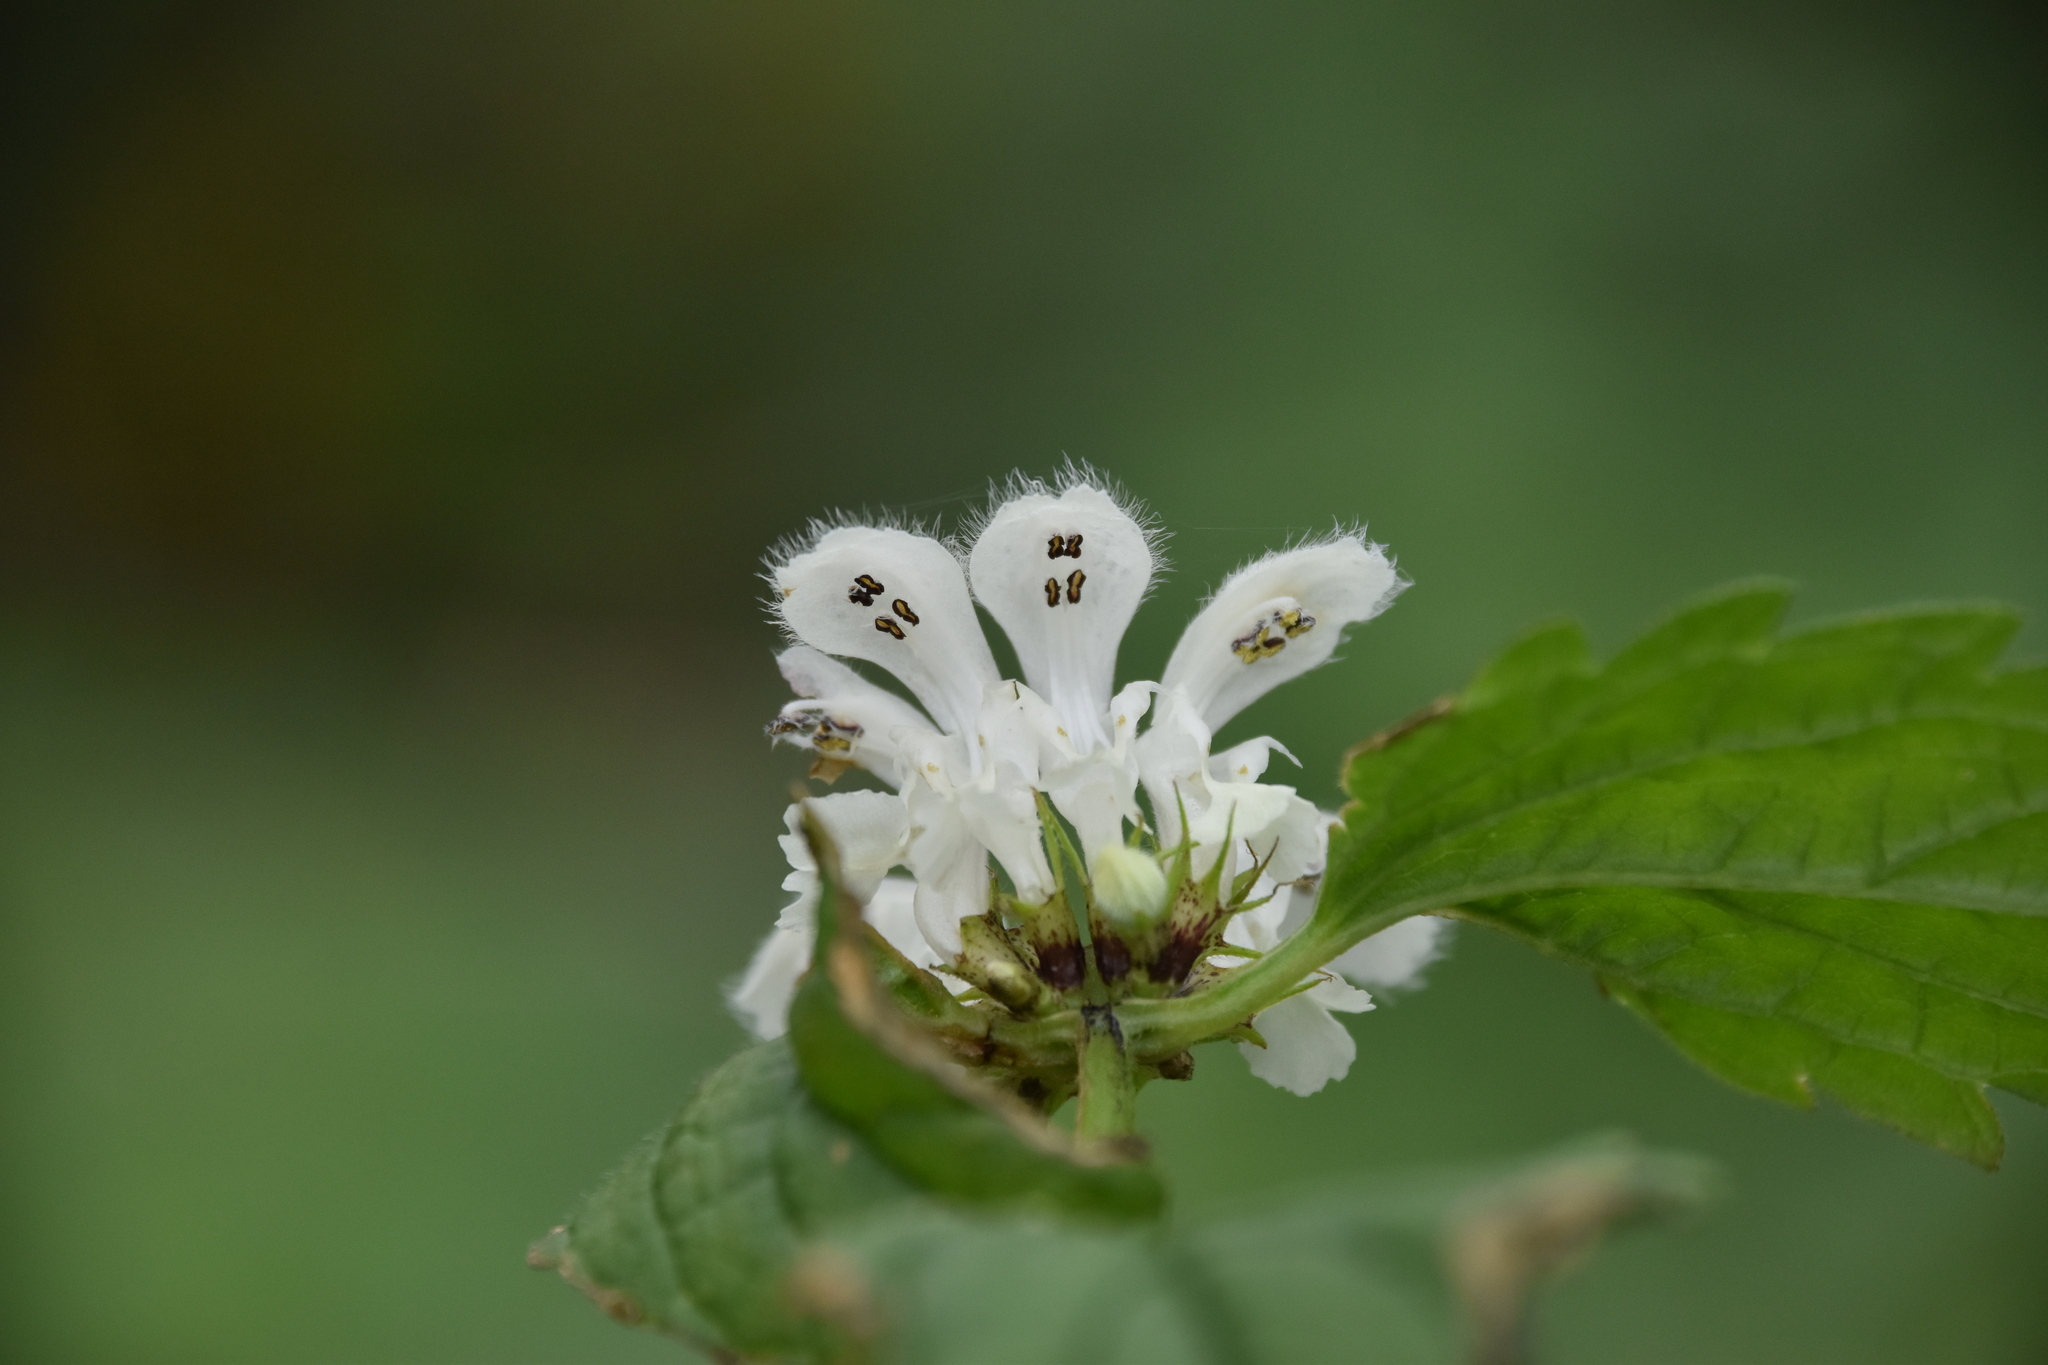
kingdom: Plantae
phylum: Tracheophyta
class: Magnoliopsida
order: Lamiales
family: Lamiaceae
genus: Lamium
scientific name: Lamium album
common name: White dead-nettle
